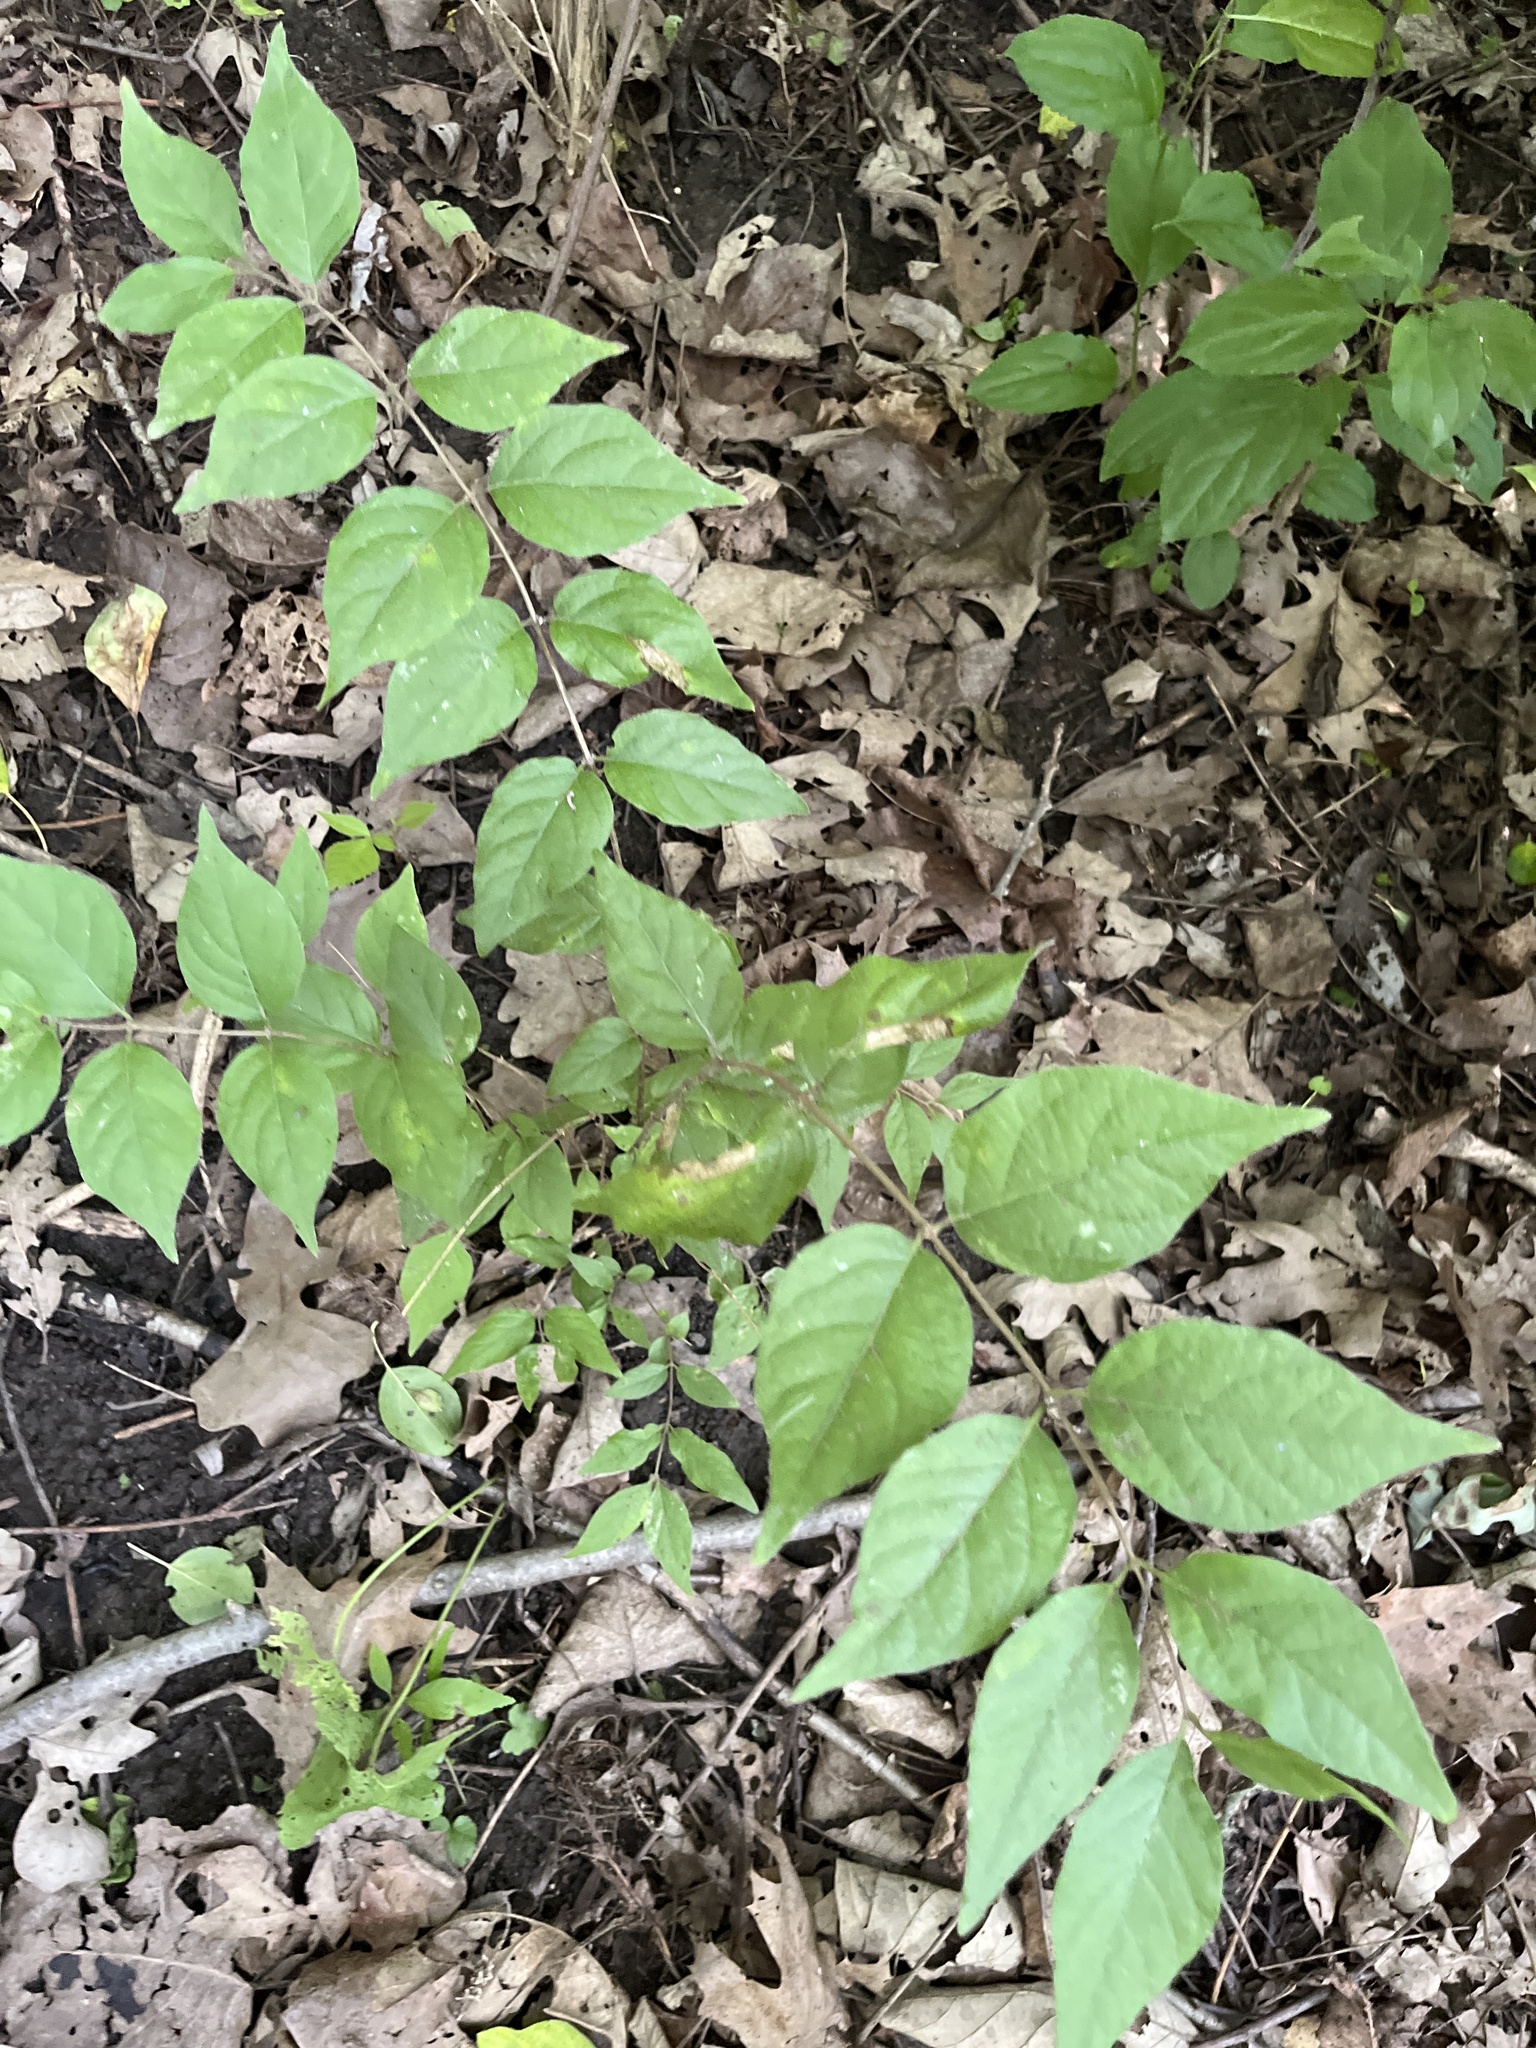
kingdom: Plantae
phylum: Tracheophyta
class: Magnoliopsida
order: Dipsacales
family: Caprifoliaceae
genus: Lonicera
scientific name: Lonicera maackii
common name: Amur honeysuckle
